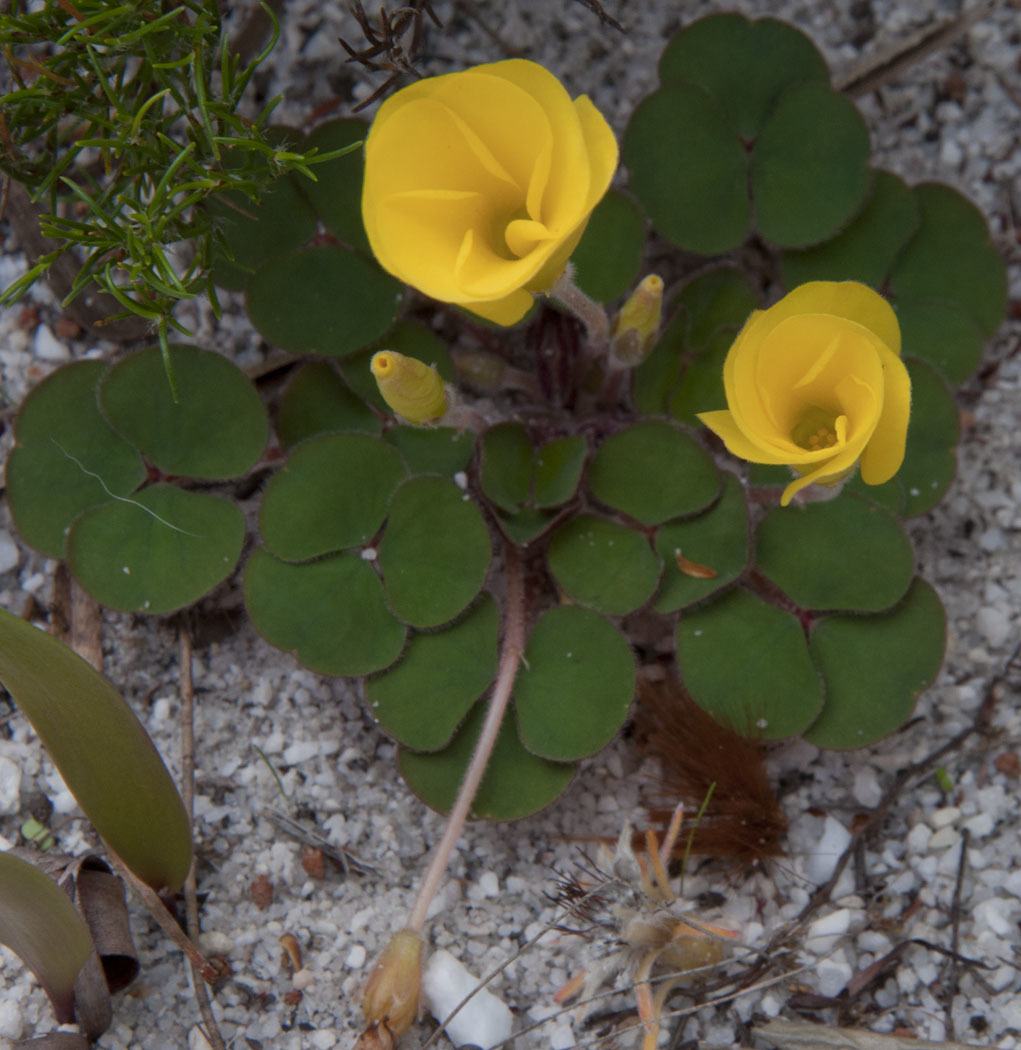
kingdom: Plantae
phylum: Tracheophyta
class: Magnoliopsida
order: Oxalidales
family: Oxalidaceae
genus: Oxalis
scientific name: Oxalis luteola
